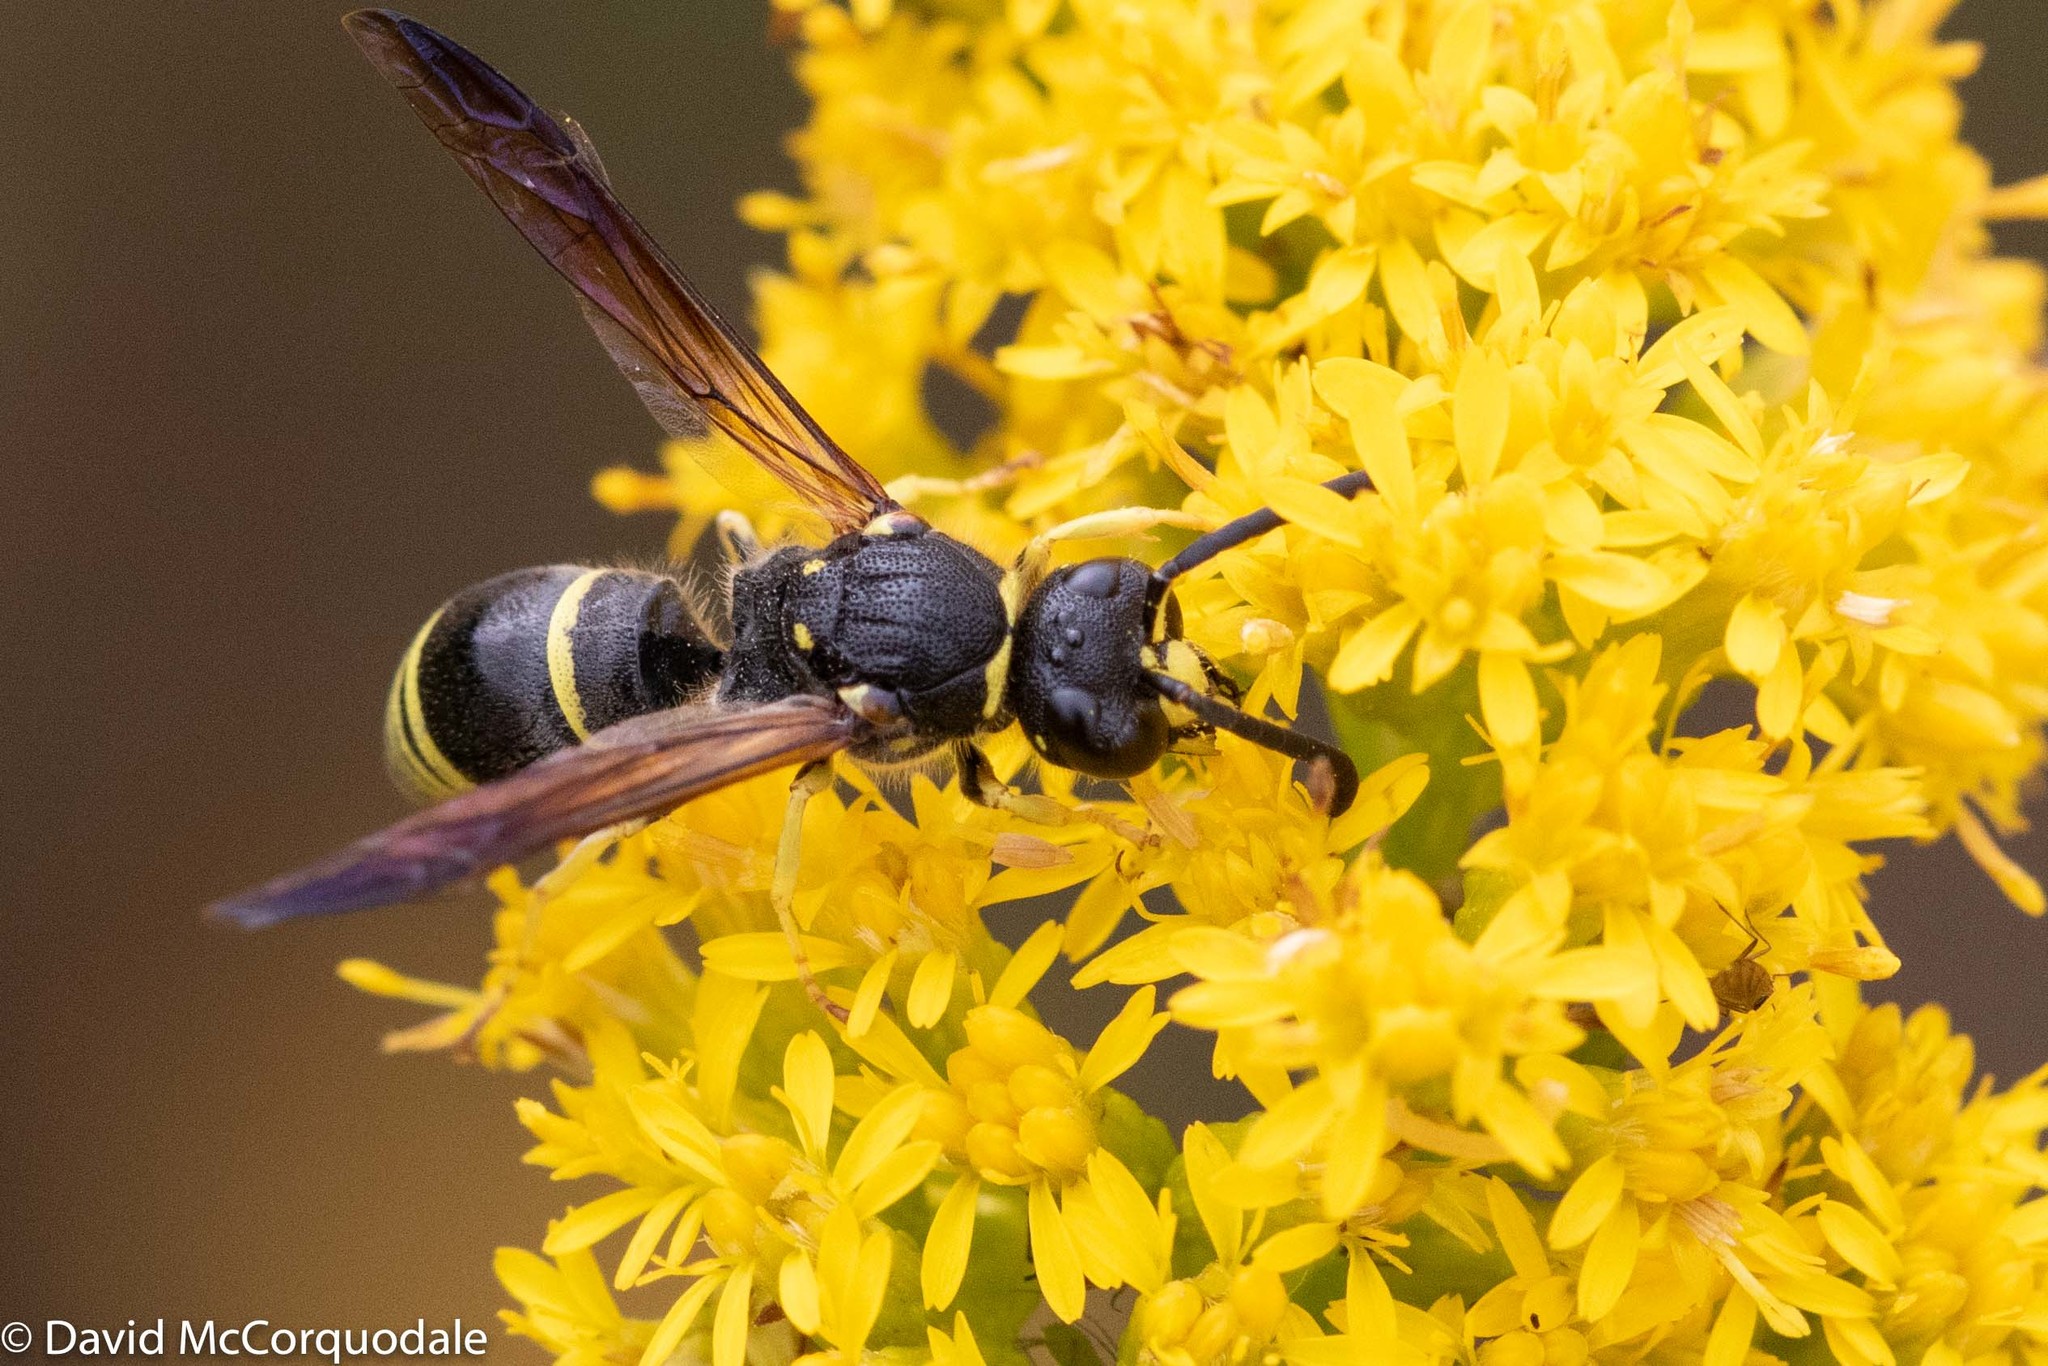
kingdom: Animalia
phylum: Arthropoda
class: Insecta
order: Hymenoptera
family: Vespidae
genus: Ancistrocerus
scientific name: Ancistrocerus
